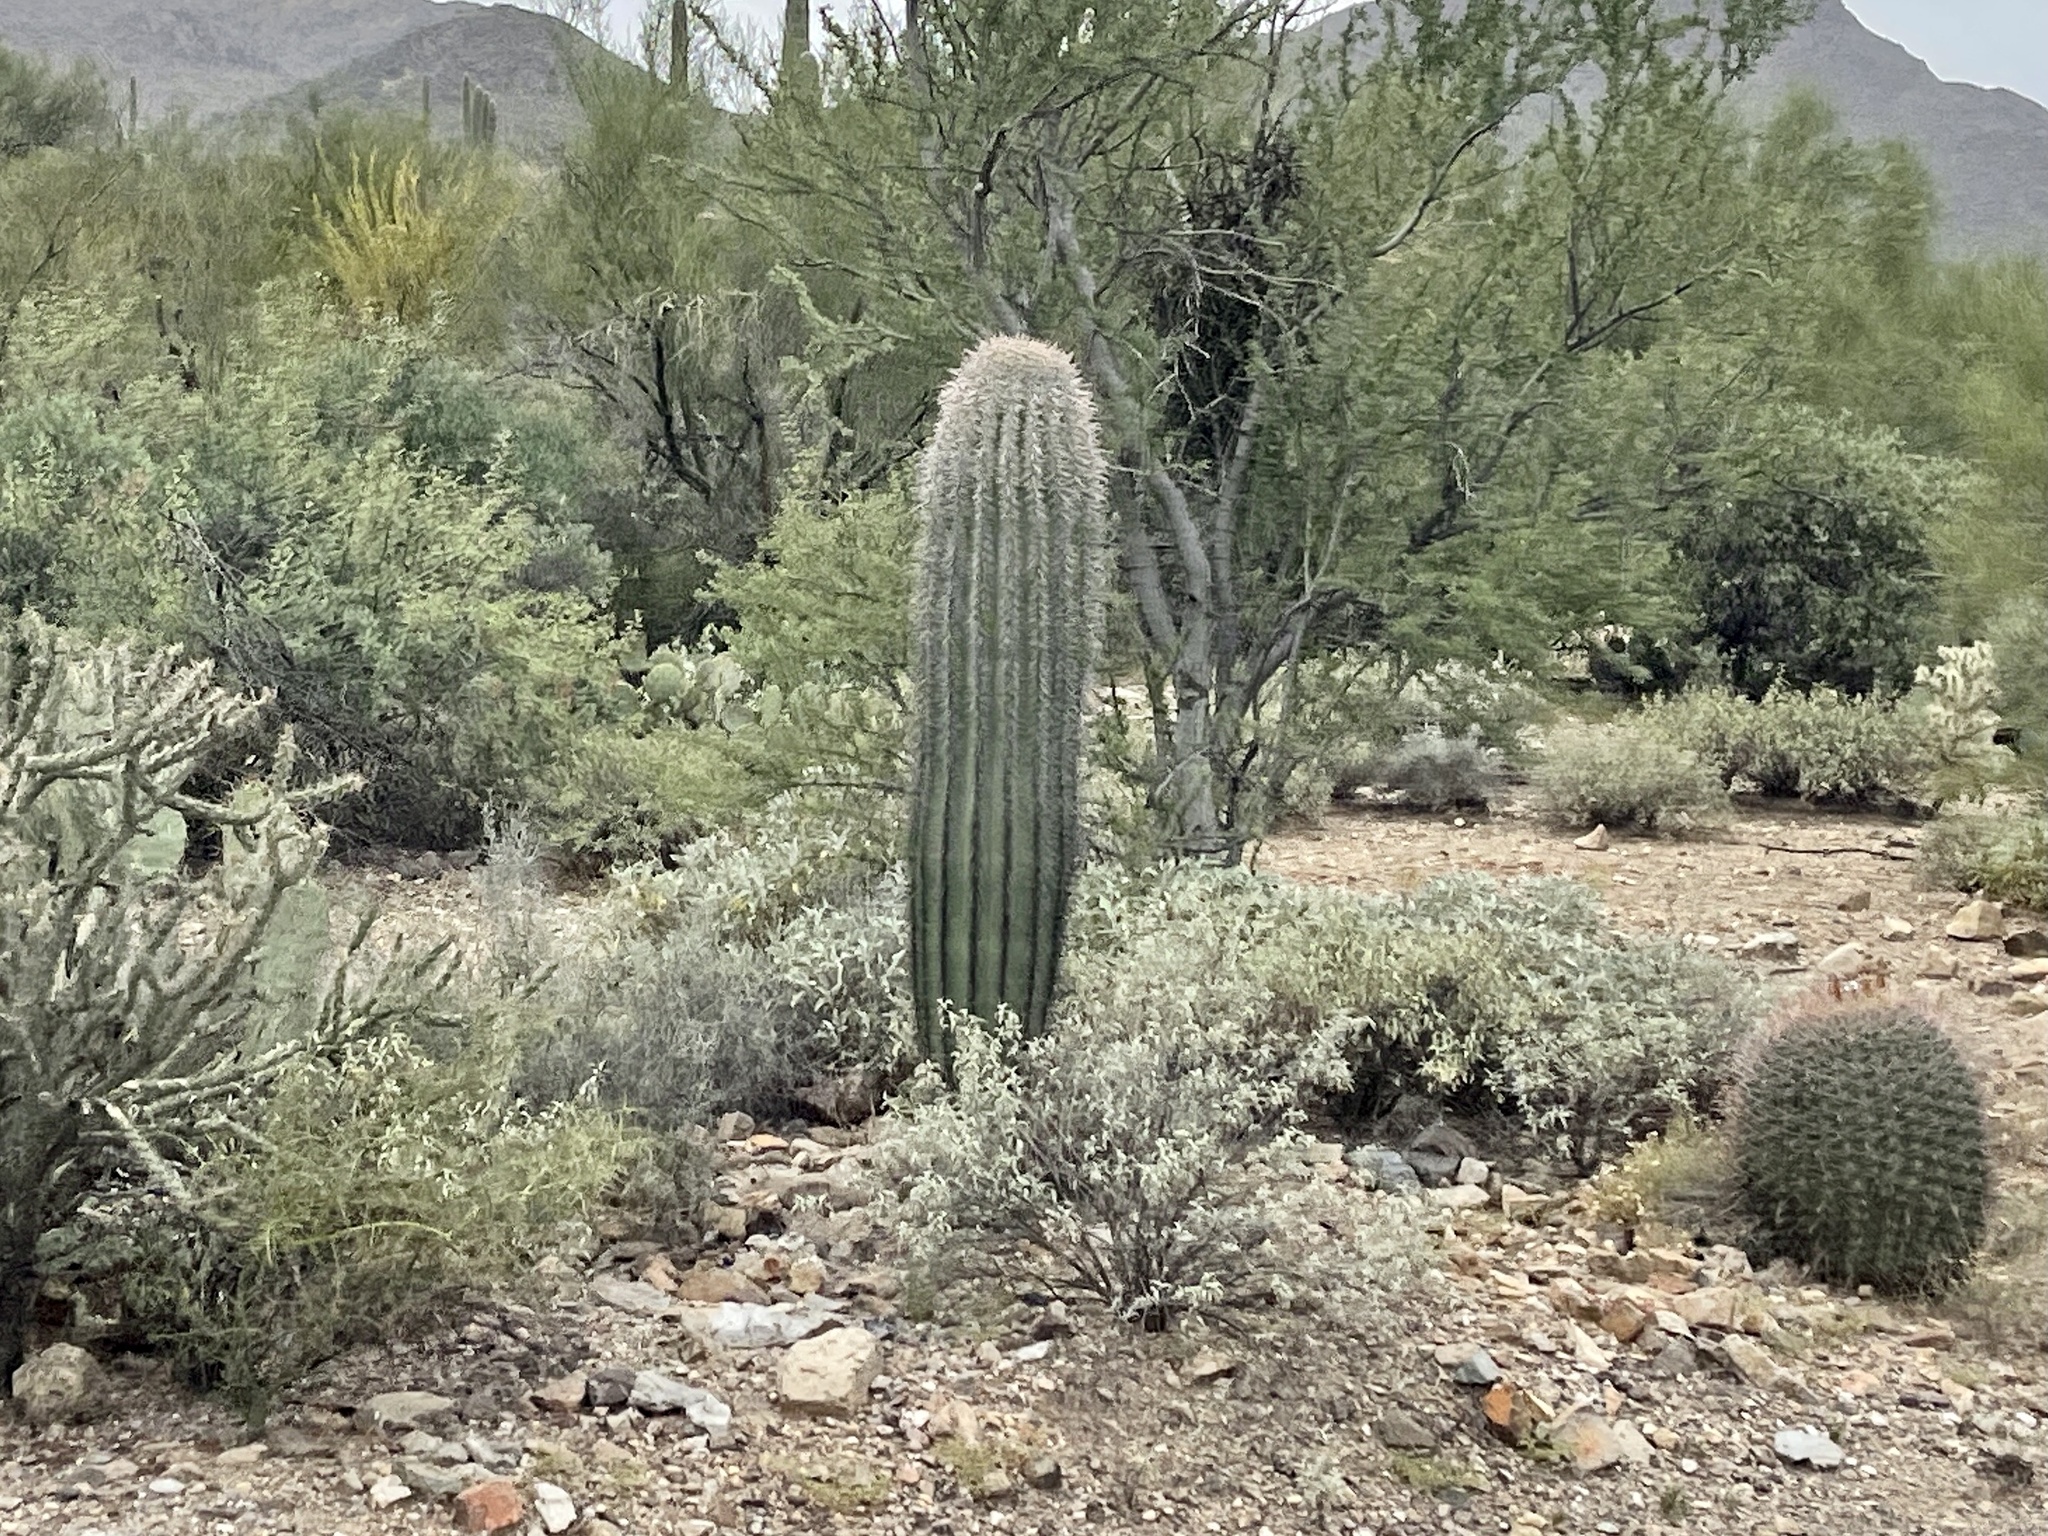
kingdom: Plantae
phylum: Tracheophyta
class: Magnoliopsida
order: Caryophyllales
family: Cactaceae
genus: Carnegiea
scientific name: Carnegiea gigantea
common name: Saguaro
